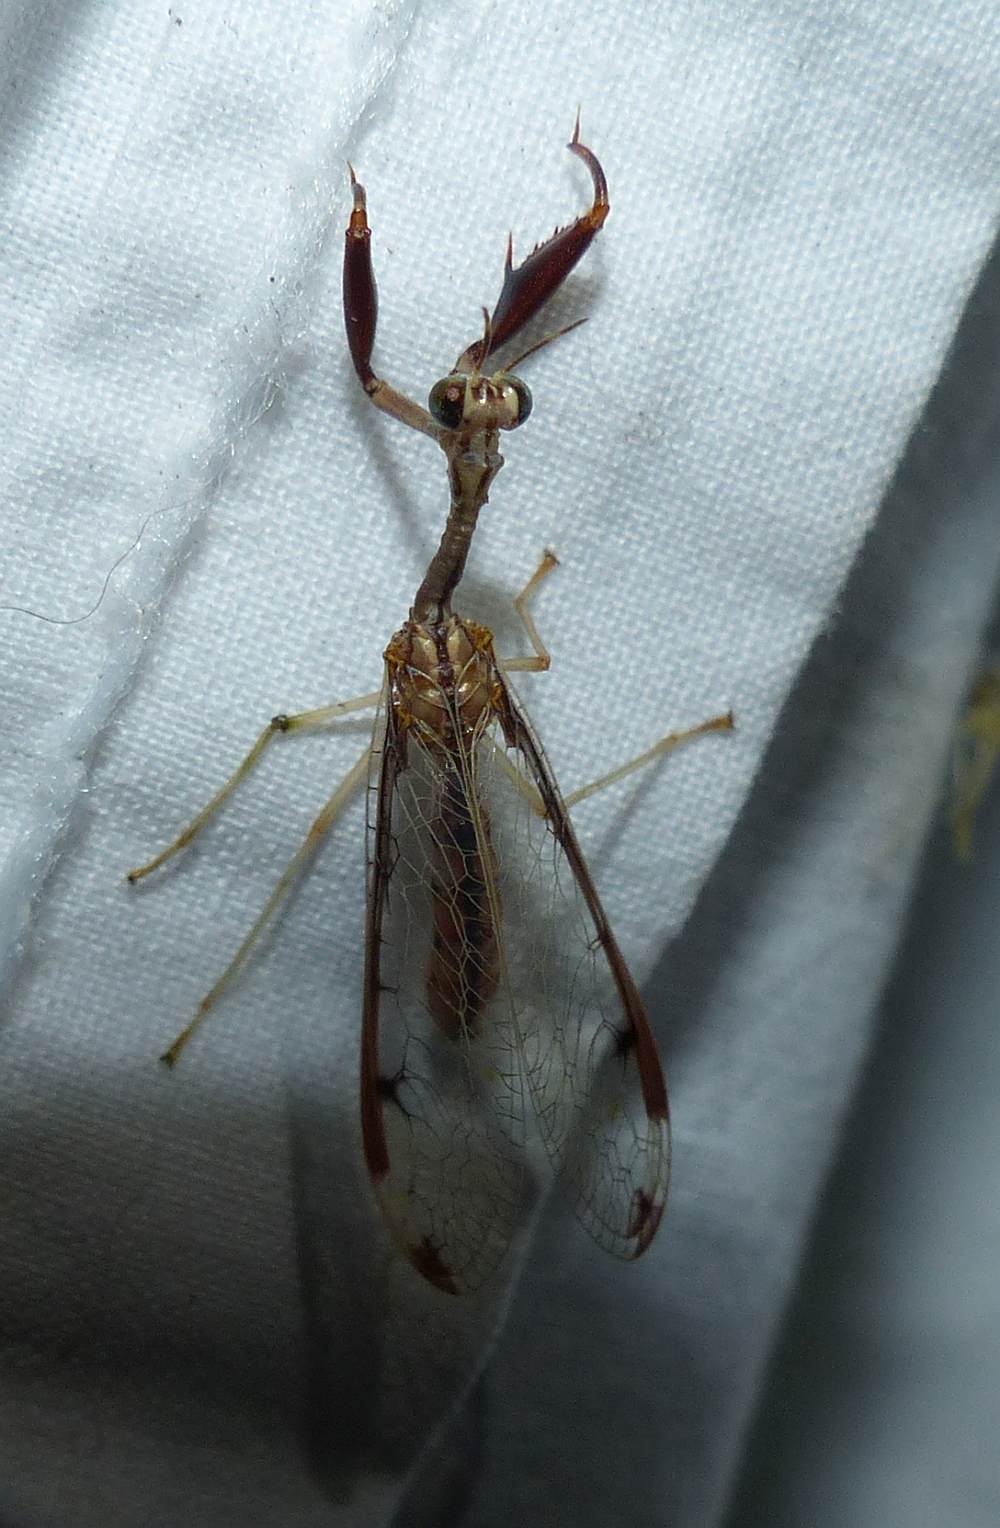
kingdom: Animalia
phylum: Arthropoda
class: Insecta
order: Neuroptera
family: Mantispidae
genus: Dicromantispa
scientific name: Dicromantispa interrupta
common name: Four-spotted mantidfly
